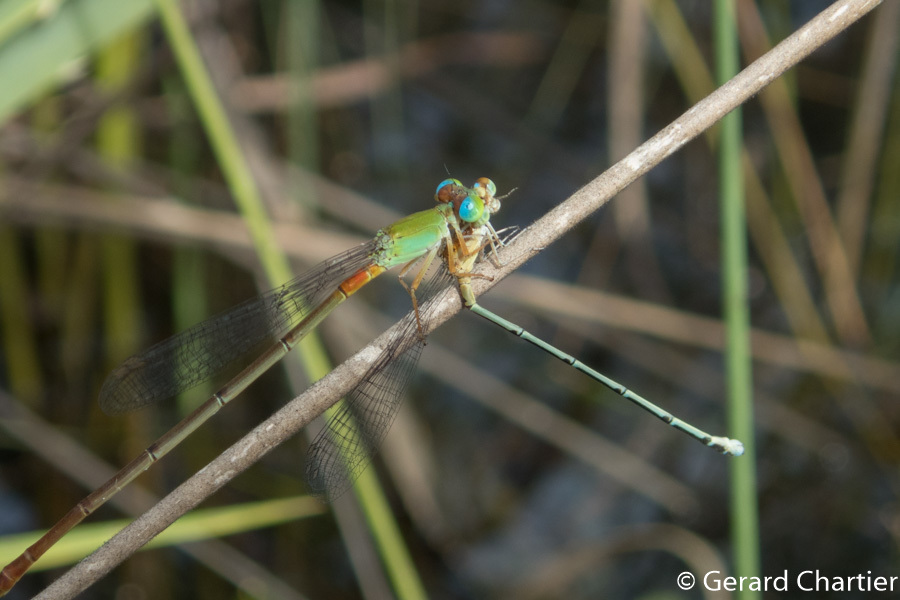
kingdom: Animalia
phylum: Arthropoda
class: Insecta
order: Odonata
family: Coenagrionidae
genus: Ceriagrion
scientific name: Ceriagrion cerinorubellum
